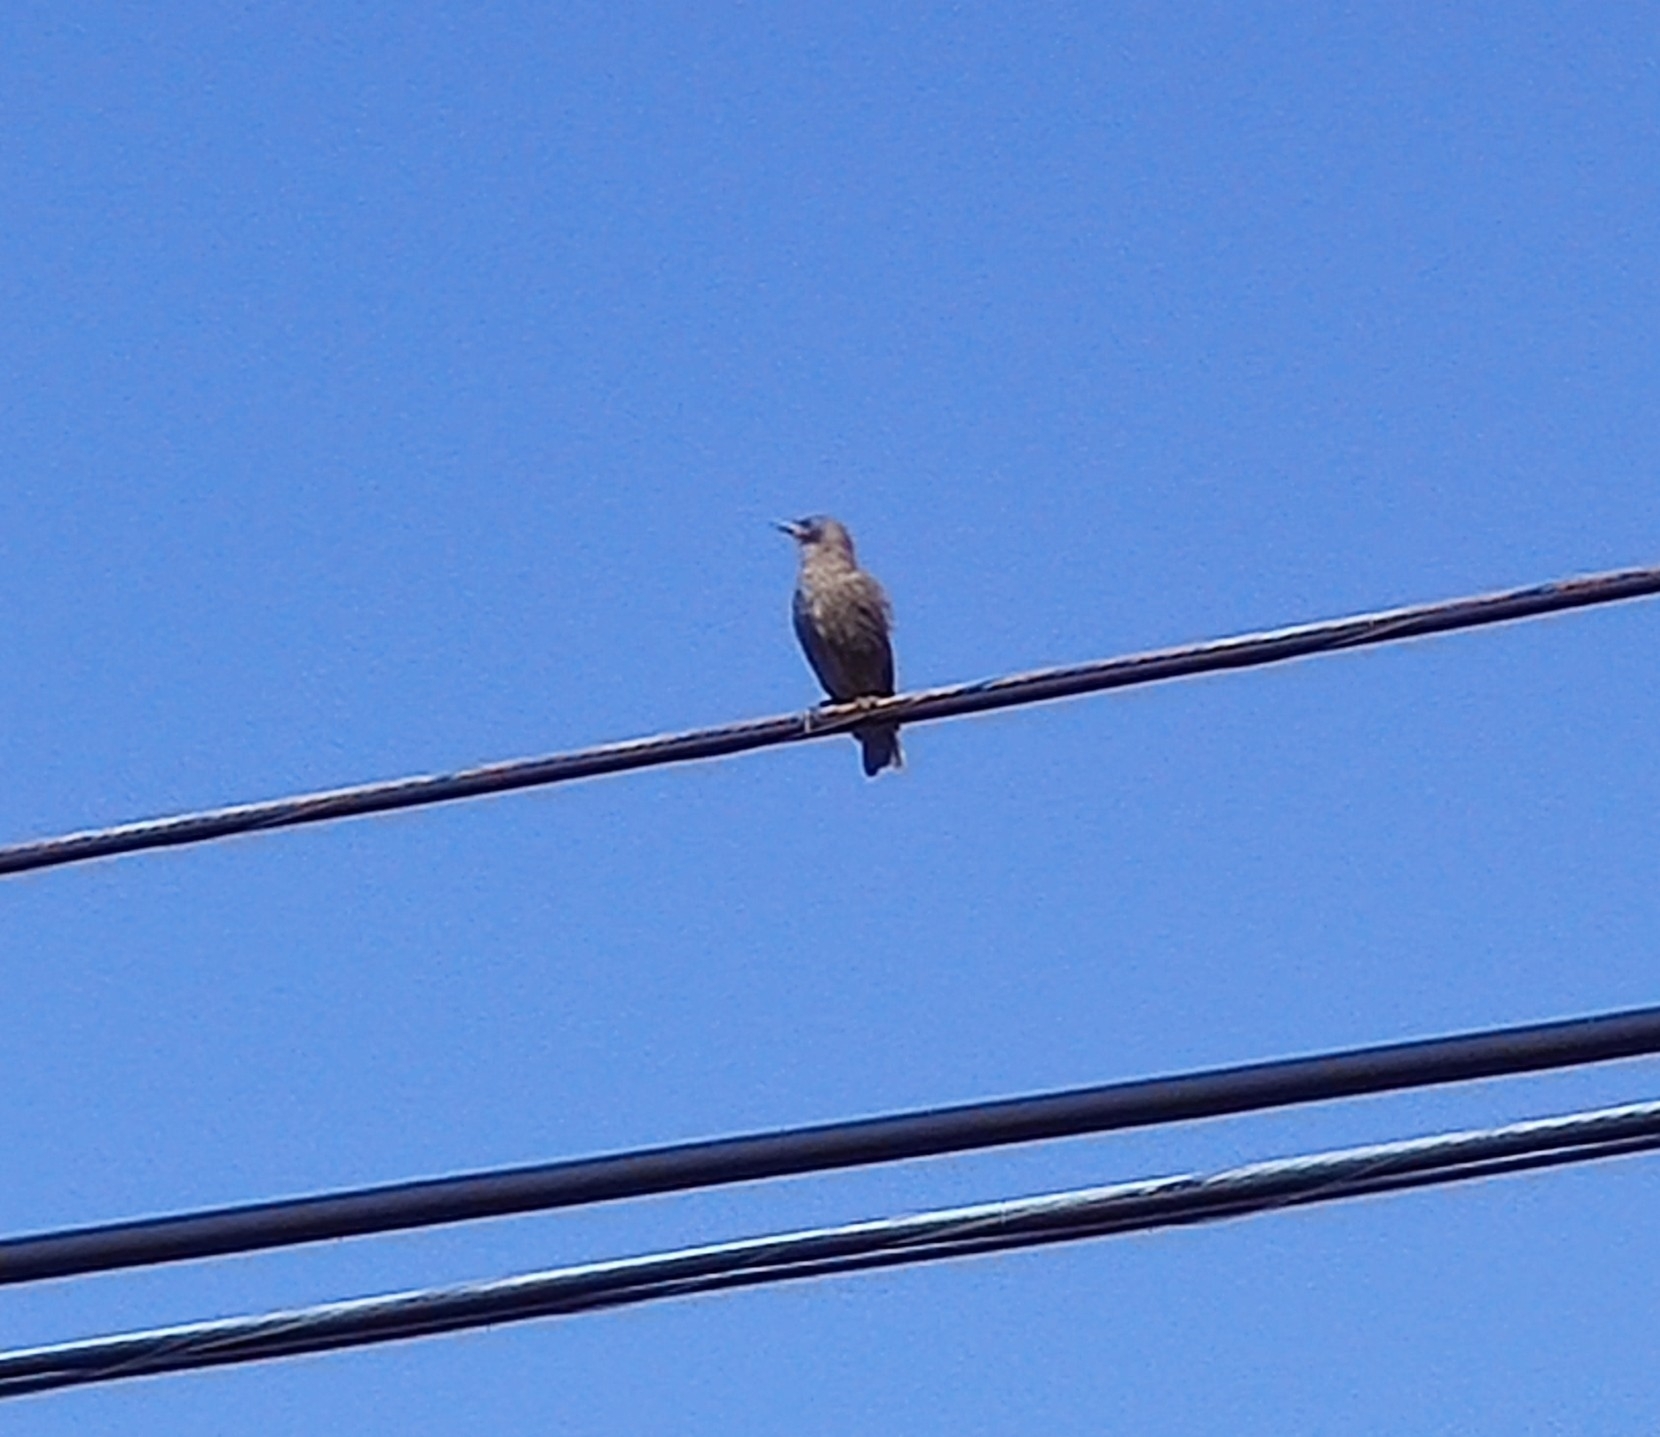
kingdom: Animalia
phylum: Chordata
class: Aves
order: Passeriformes
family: Sturnidae
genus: Sturnus
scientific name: Sturnus vulgaris
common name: Common starling
